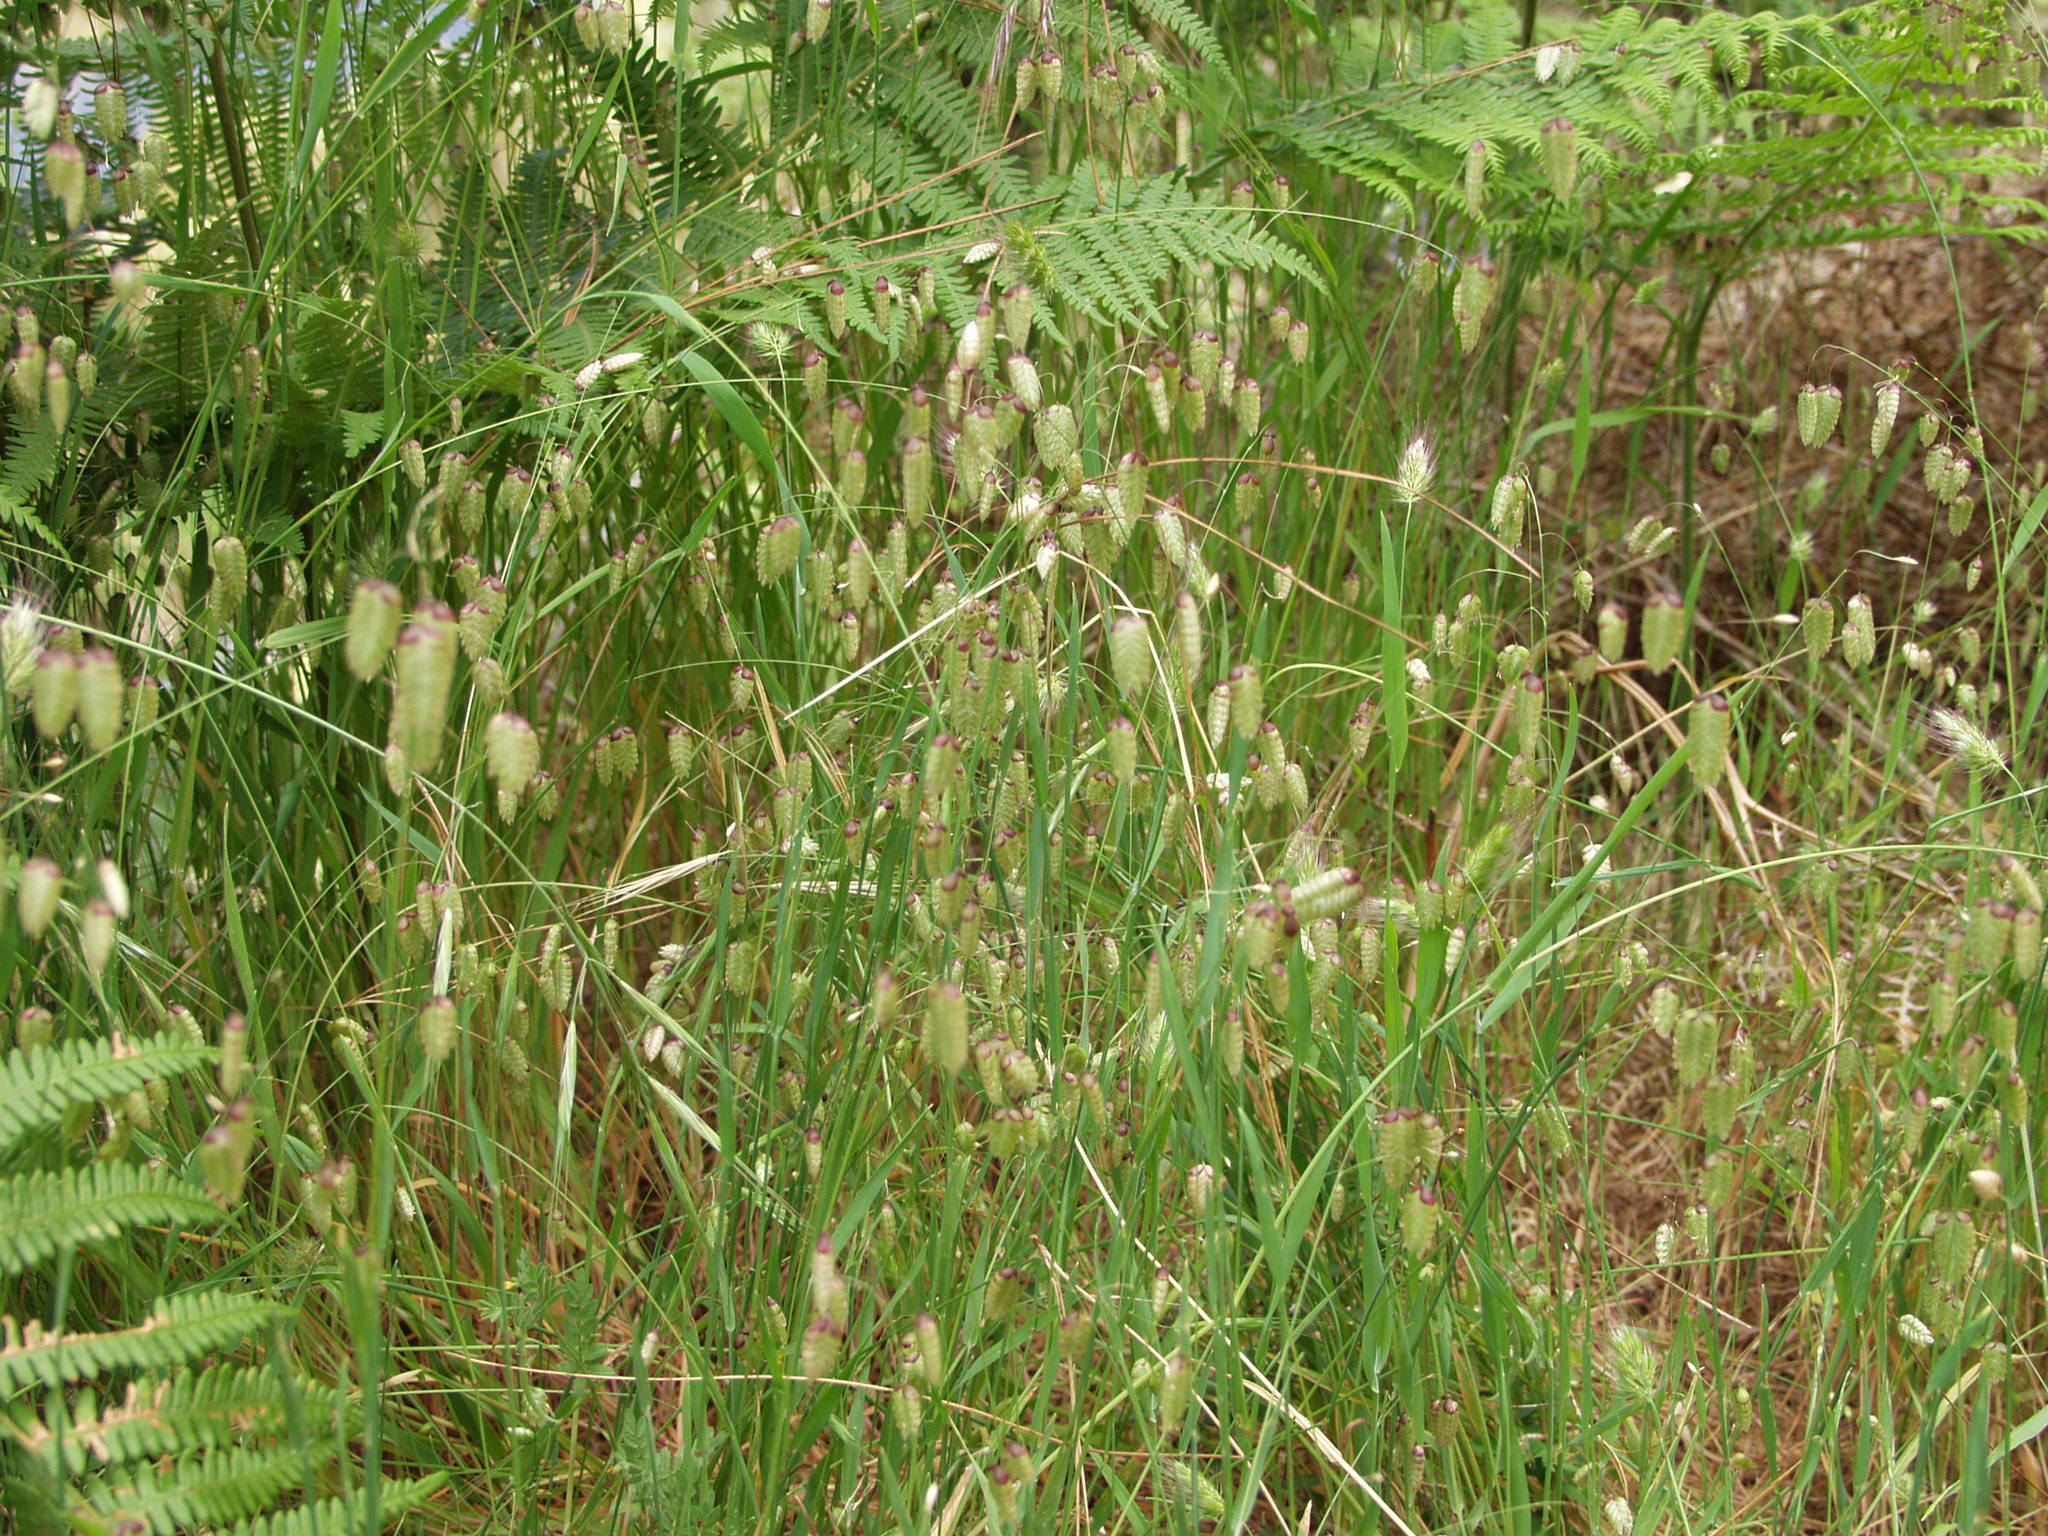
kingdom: Plantae
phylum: Tracheophyta
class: Liliopsida
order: Poales
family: Poaceae
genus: Briza
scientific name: Briza maxima
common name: Big quakinggrass
